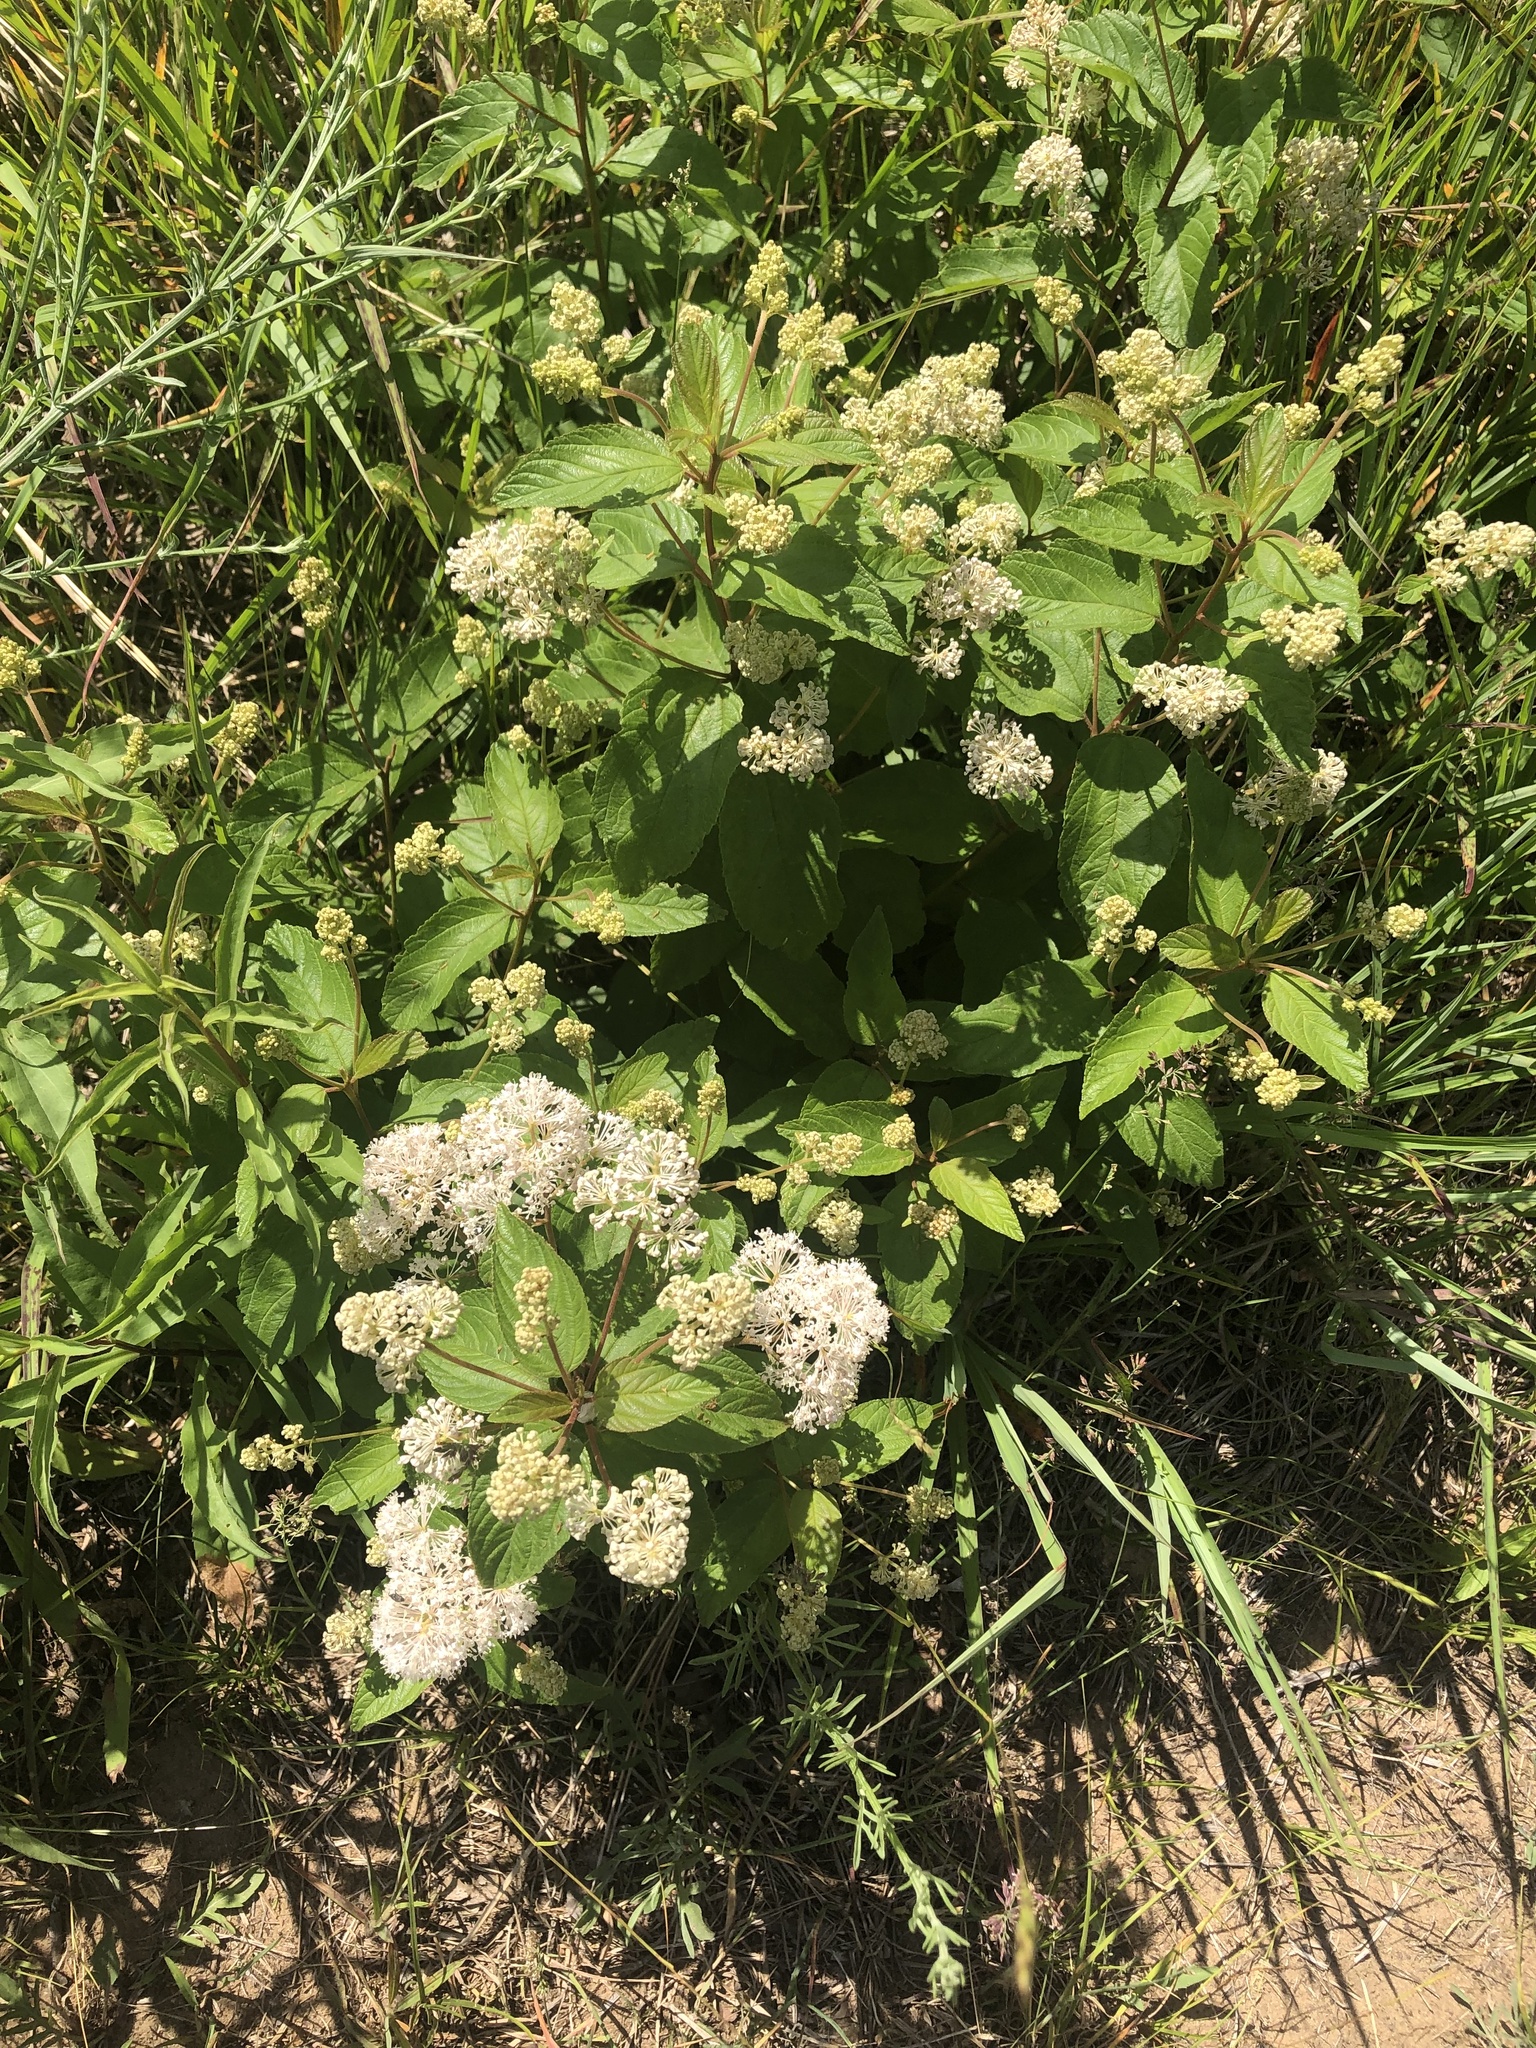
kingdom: Plantae
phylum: Tracheophyta
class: Magnoliopsida
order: Rosales
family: Rhamnaceae
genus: Ceanothus
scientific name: Ceanothus americanus
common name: Redroot
